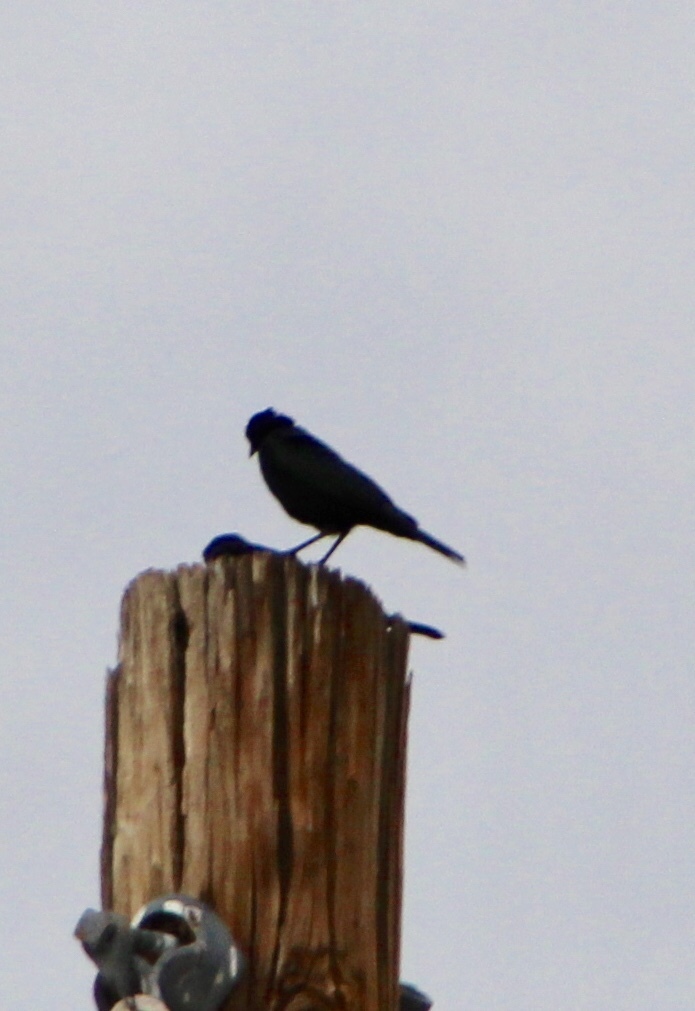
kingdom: Animalia
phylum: Chordata
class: Aves
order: Passeriformes
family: Icteridae
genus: Euphagus
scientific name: Euphagus cyanocephalus
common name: Brewer's blackbird
